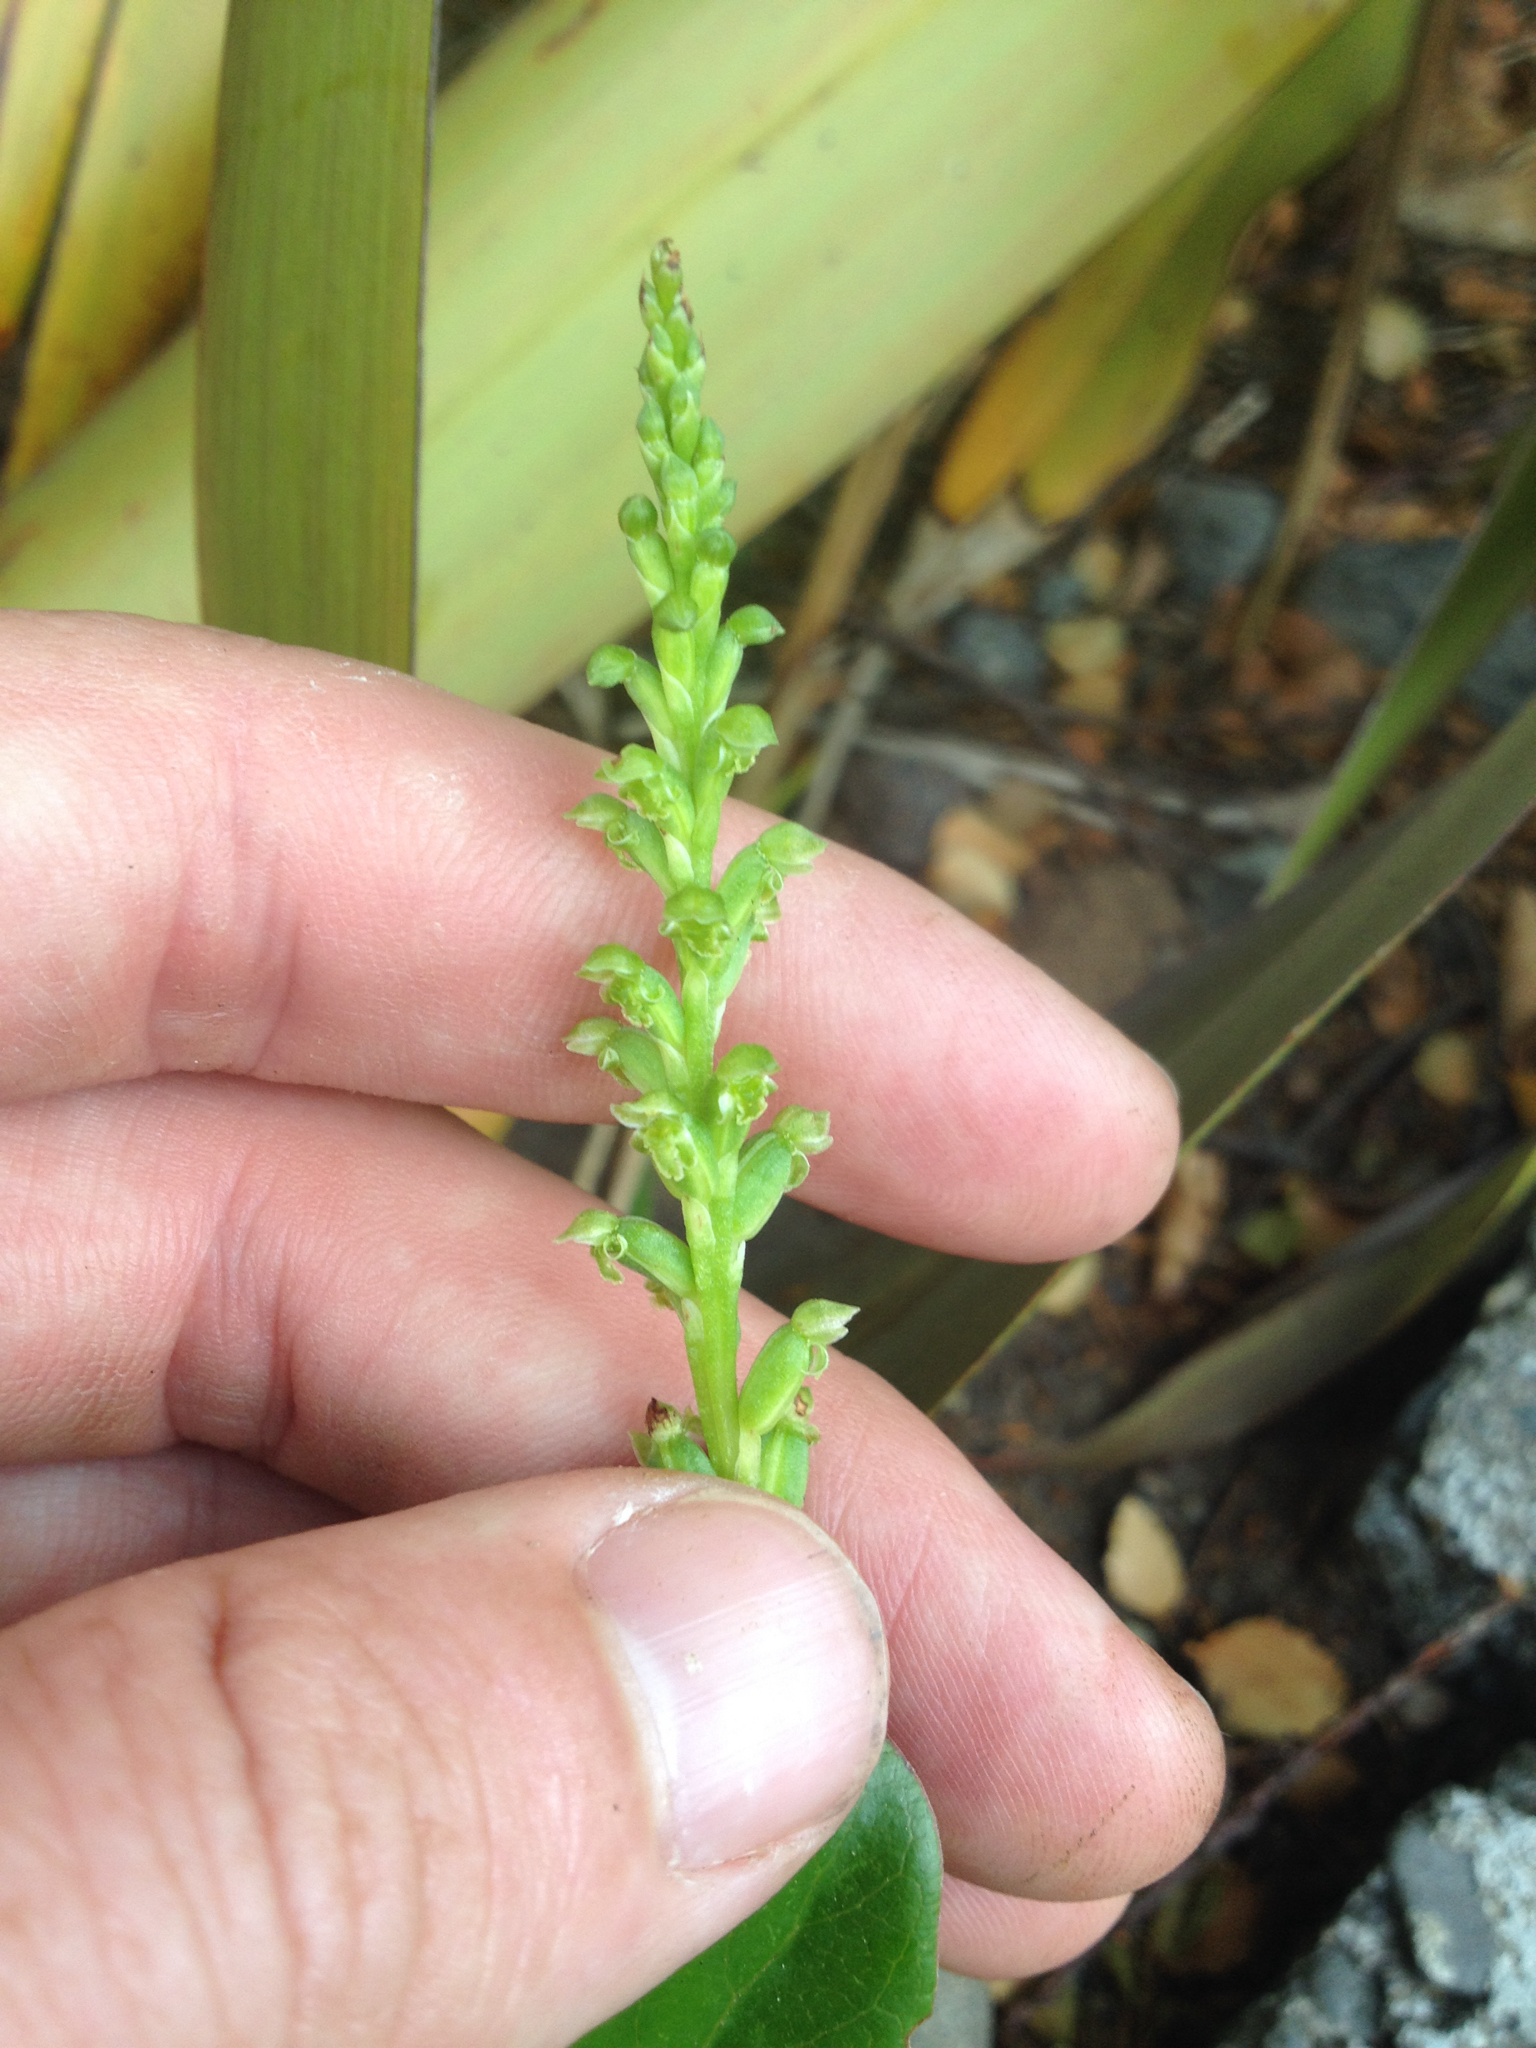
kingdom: Plantae
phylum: Tracheophyta
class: Liliopsida
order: Asparagales
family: Orchidaceae
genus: Microtis
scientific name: Microtis unifolia
